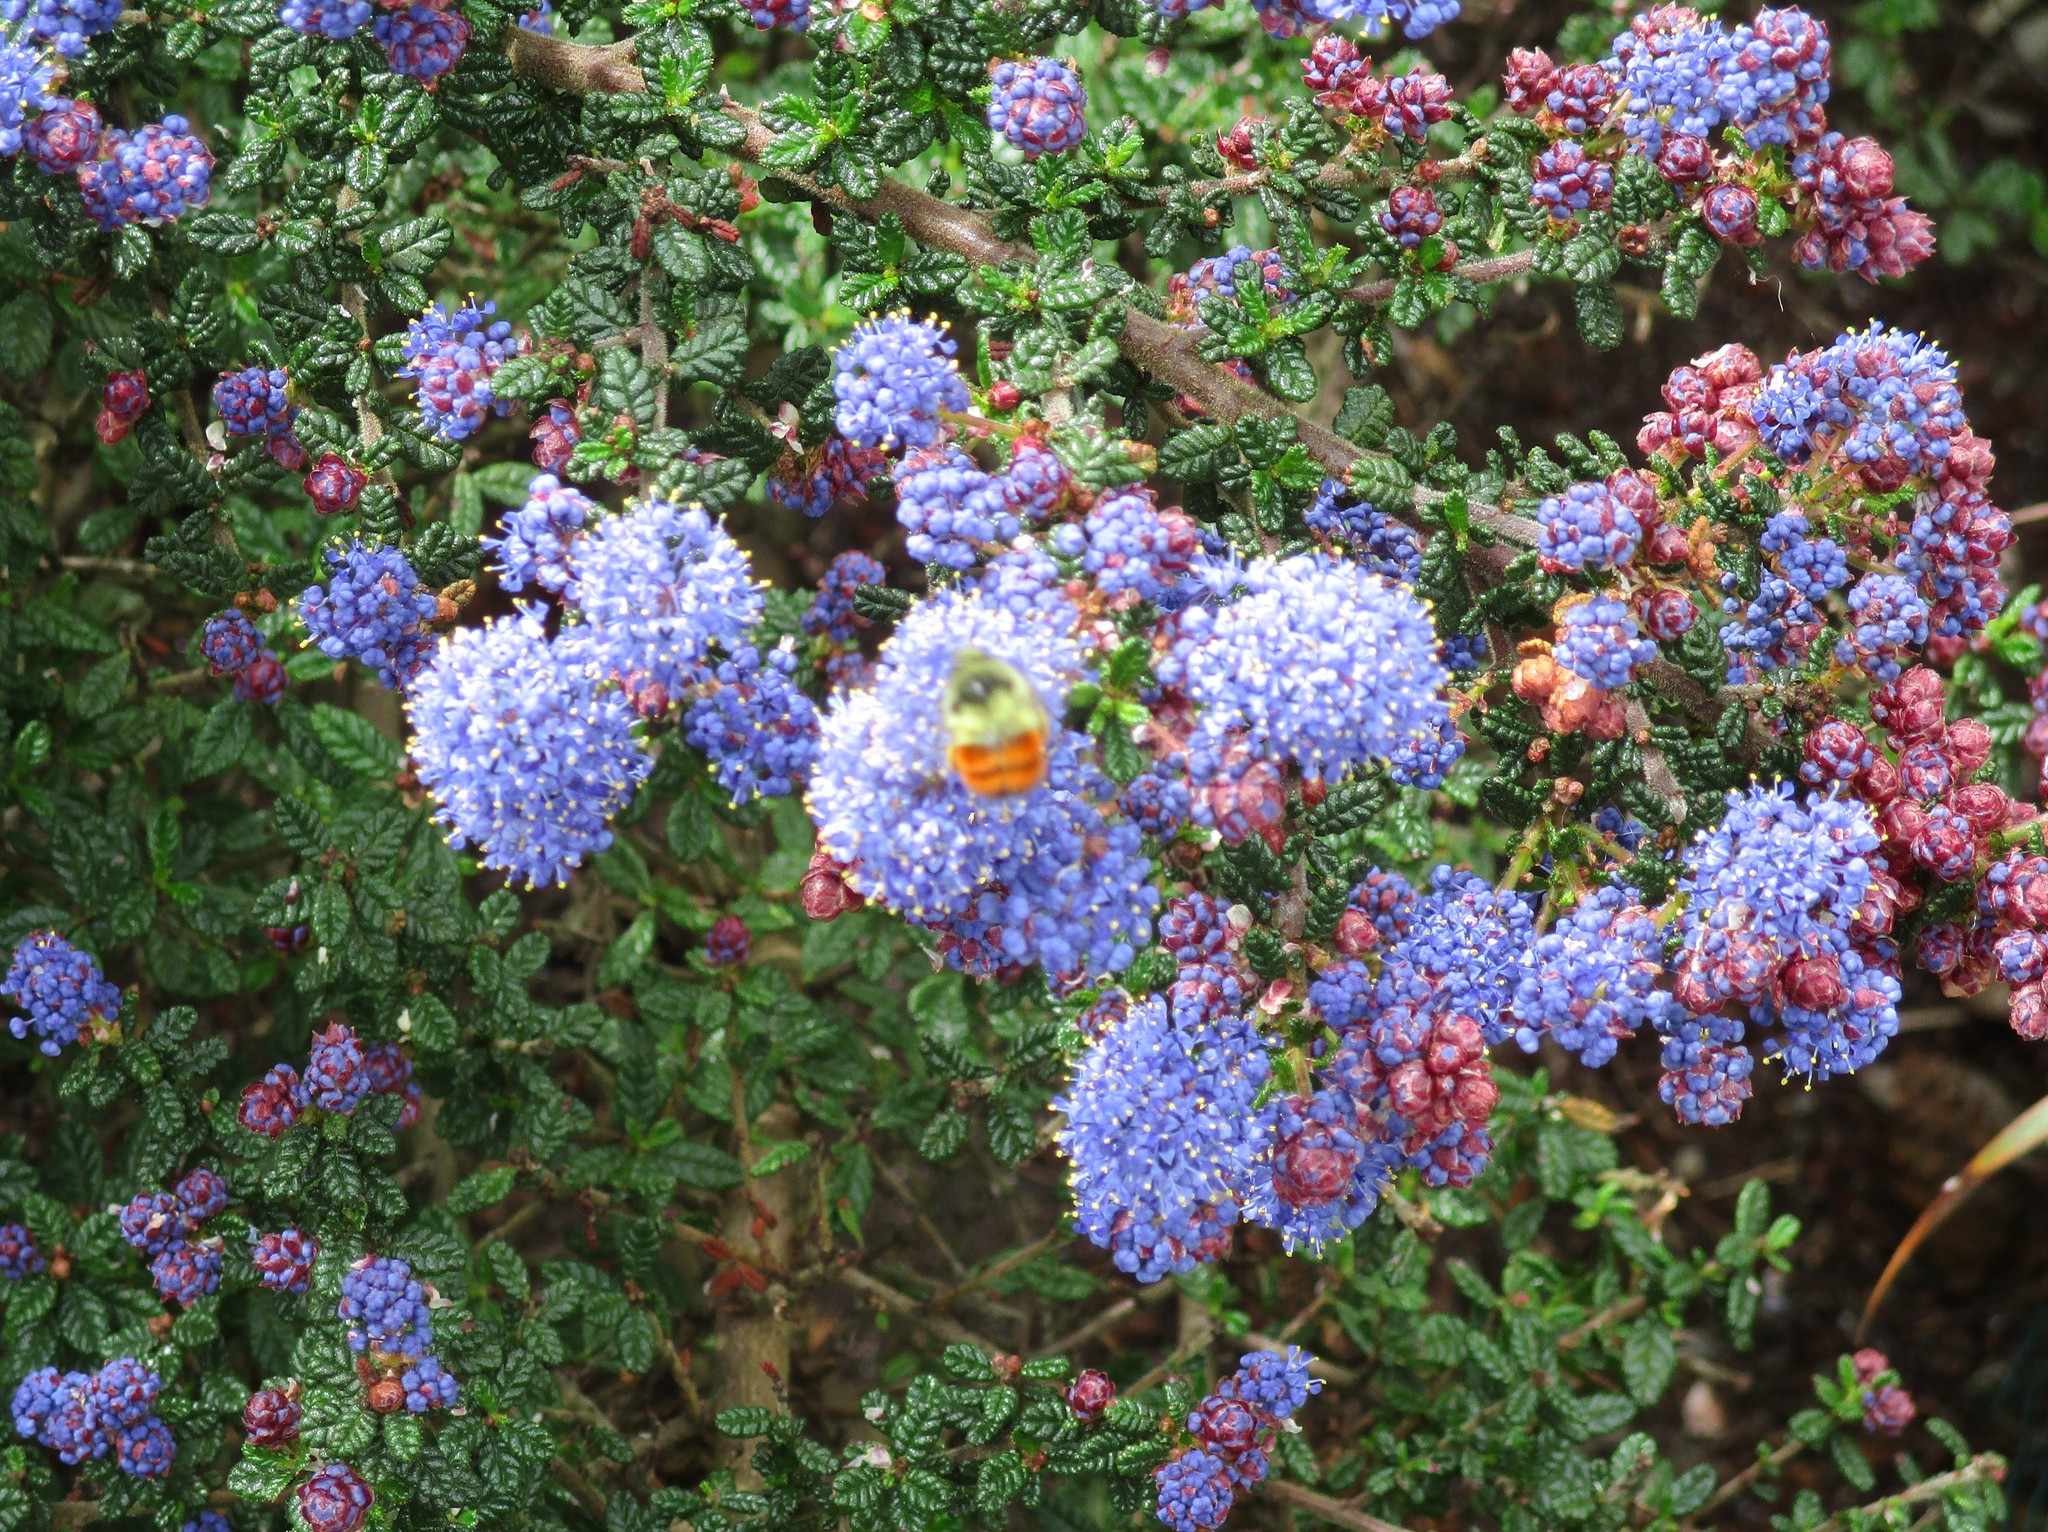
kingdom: Animalia
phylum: Arthropoda
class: Insecta
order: Hymenoptera
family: Apidae
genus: Bombus
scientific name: Bombus melanopygus
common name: Black tail bumble bee
